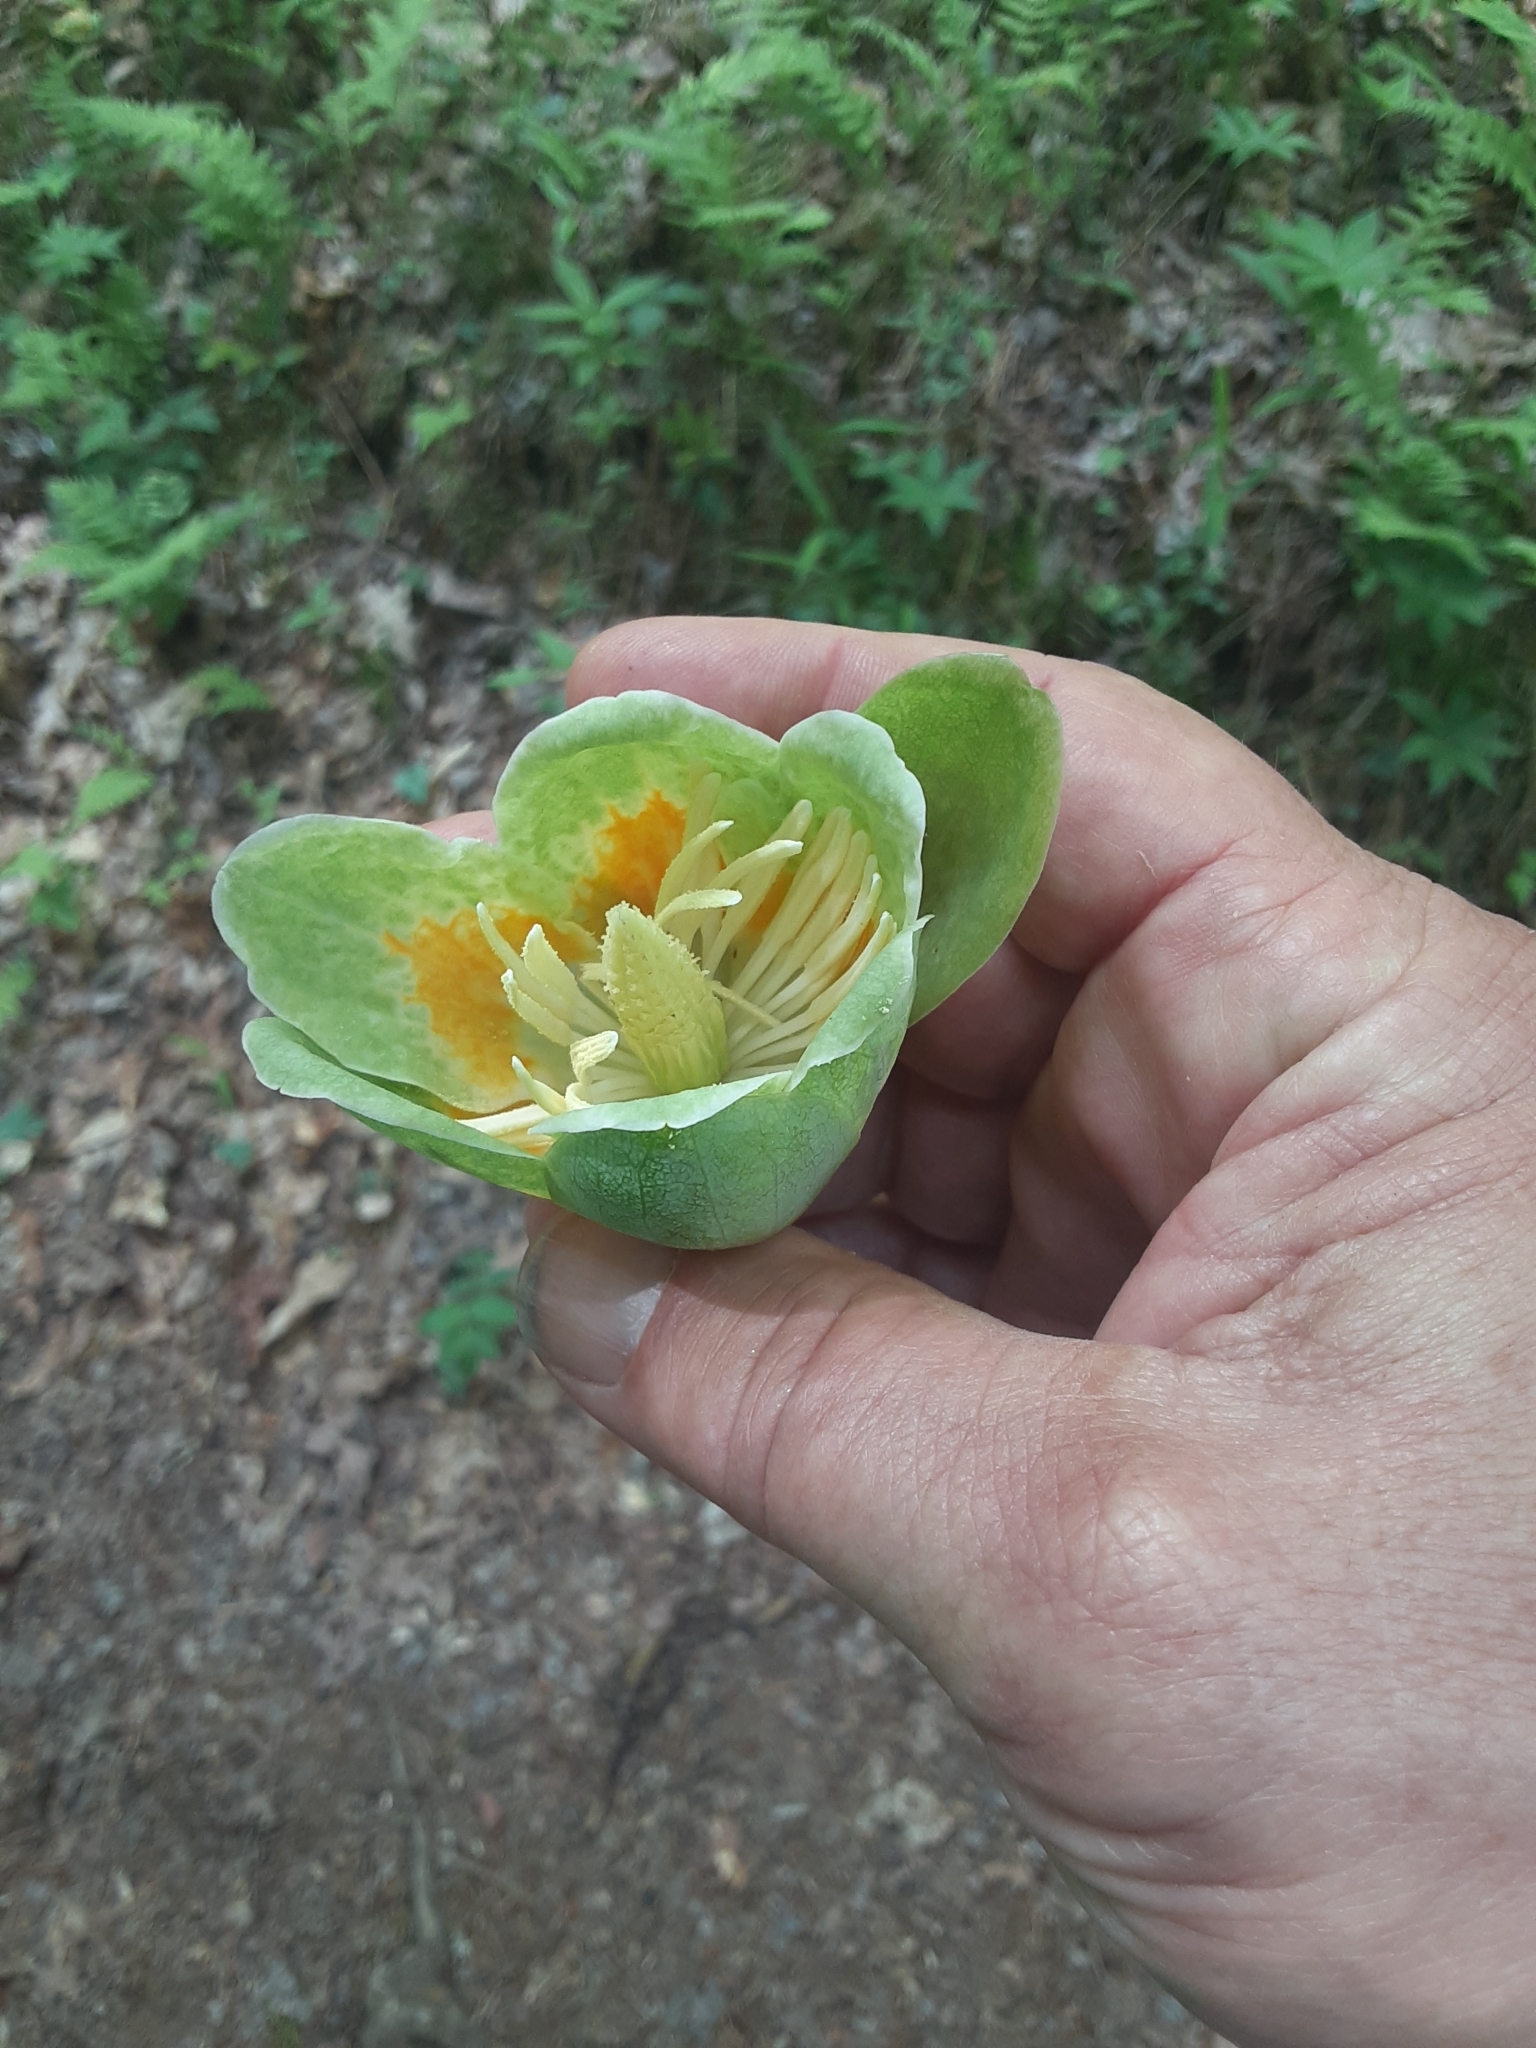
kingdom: Plantae
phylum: Tracheophyta
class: Magnoliopsida
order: Magnoliales
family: Magnoliaceae
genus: Liriodendron
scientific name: Liriodendron tulipifera
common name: Tulip tree
